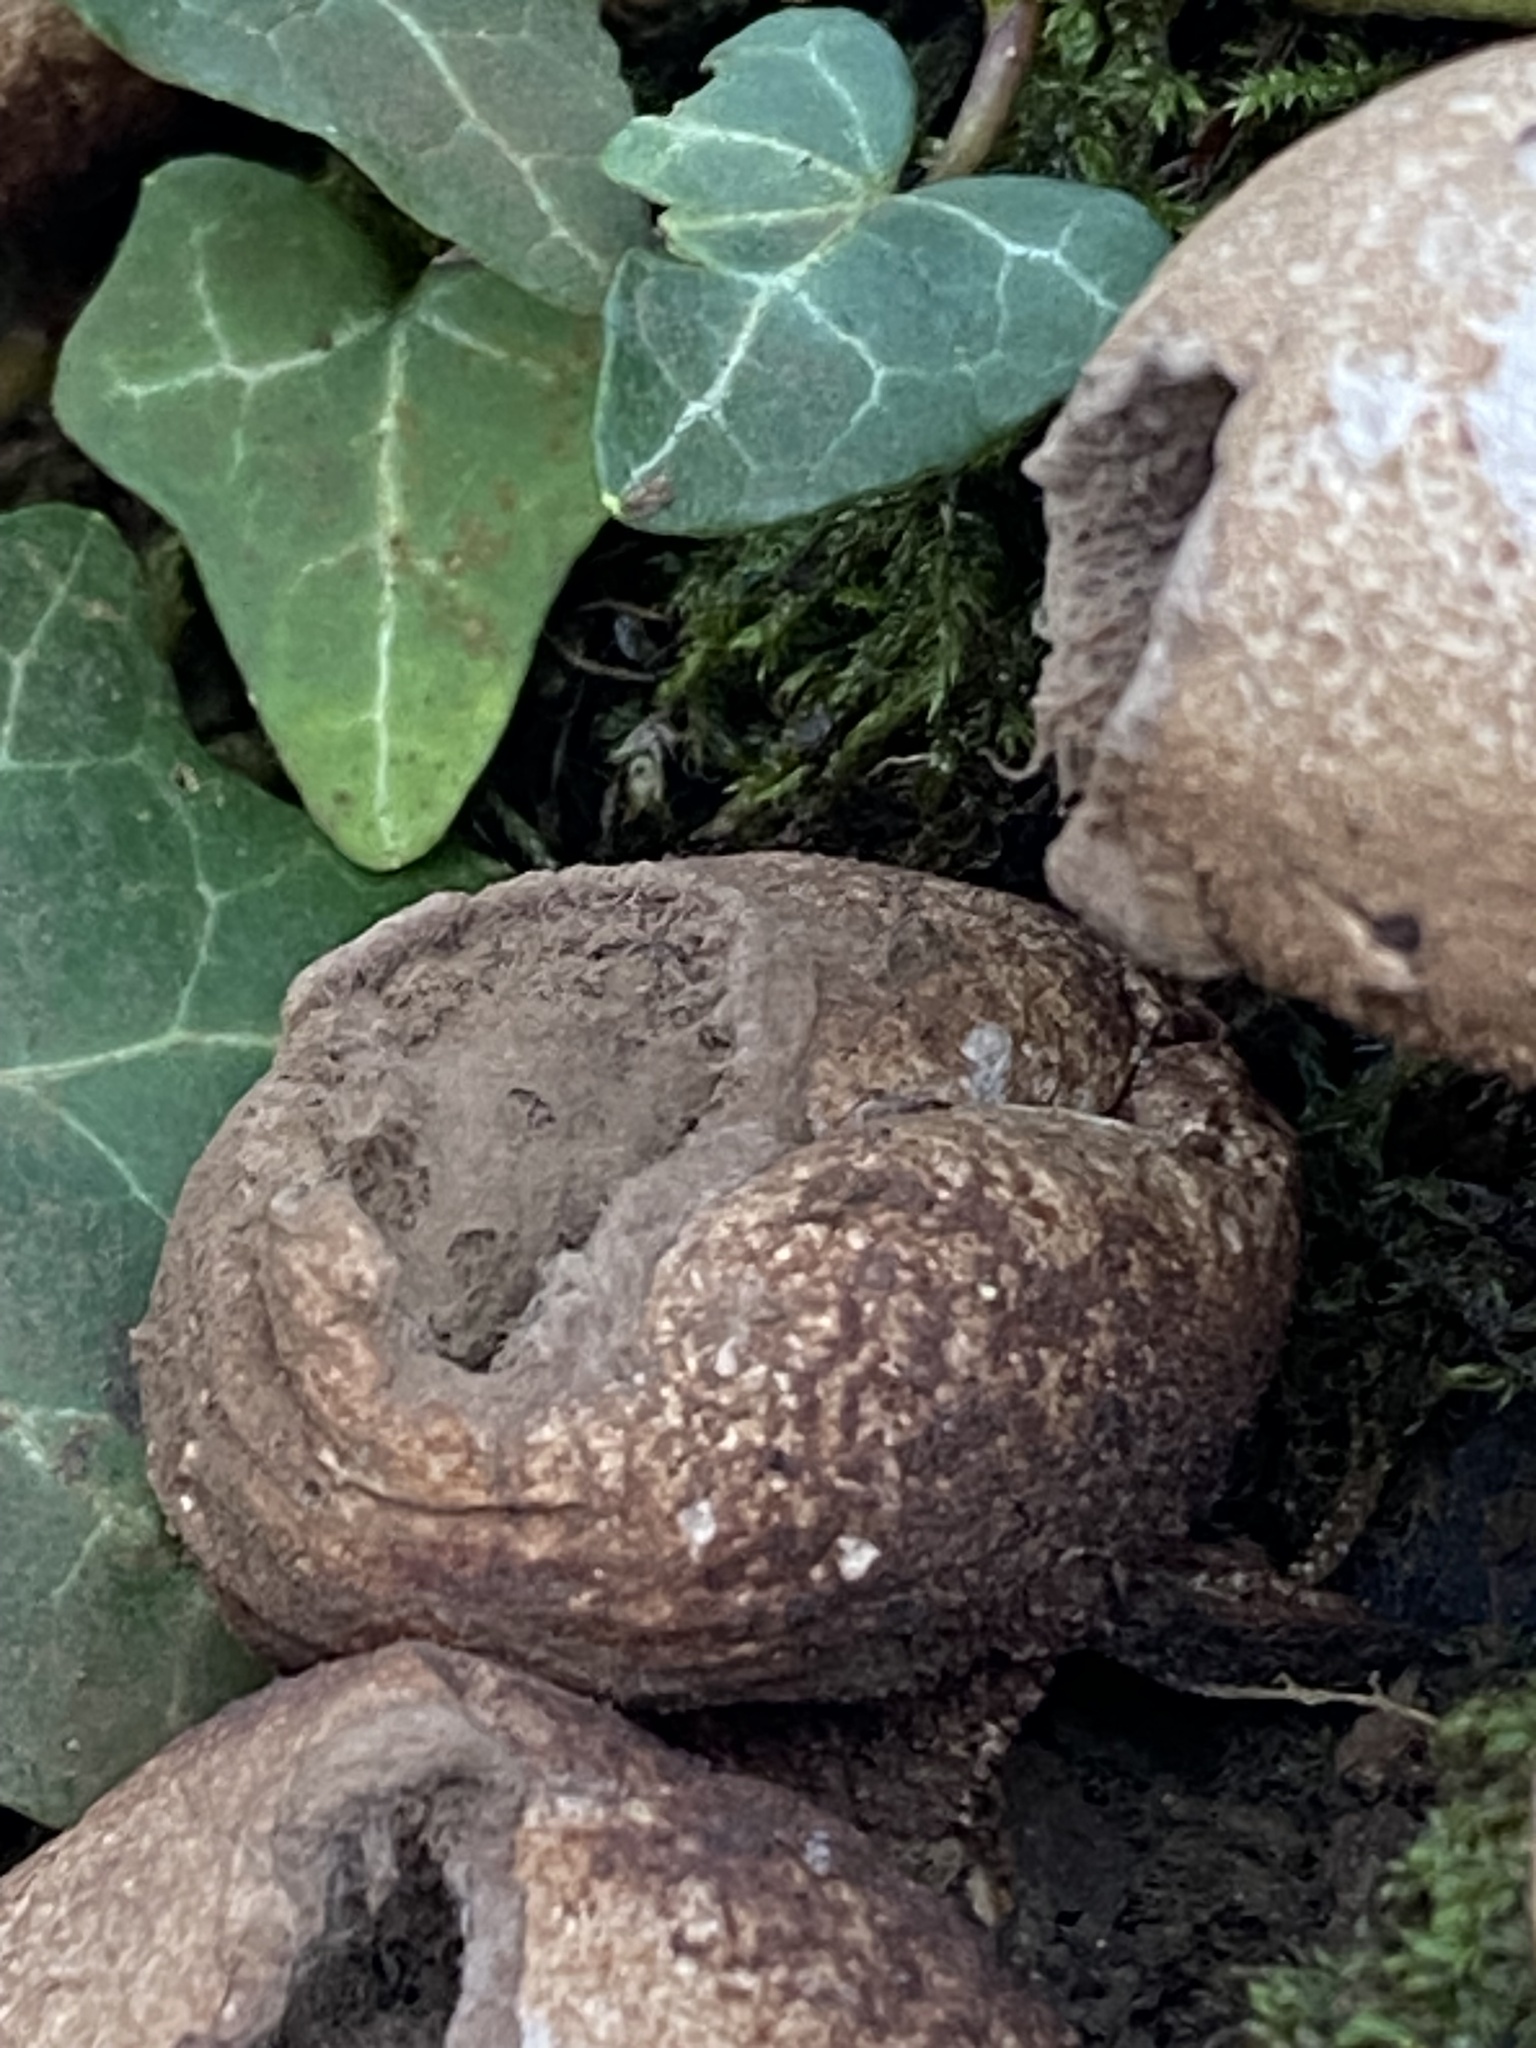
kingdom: Fungi
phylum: Basidiomycota
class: Agaricomycetes
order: Agaricales
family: Lycoperdaceae
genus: Apioperdon
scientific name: Apioperdon pyriforme
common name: Pear-shaped puffball
